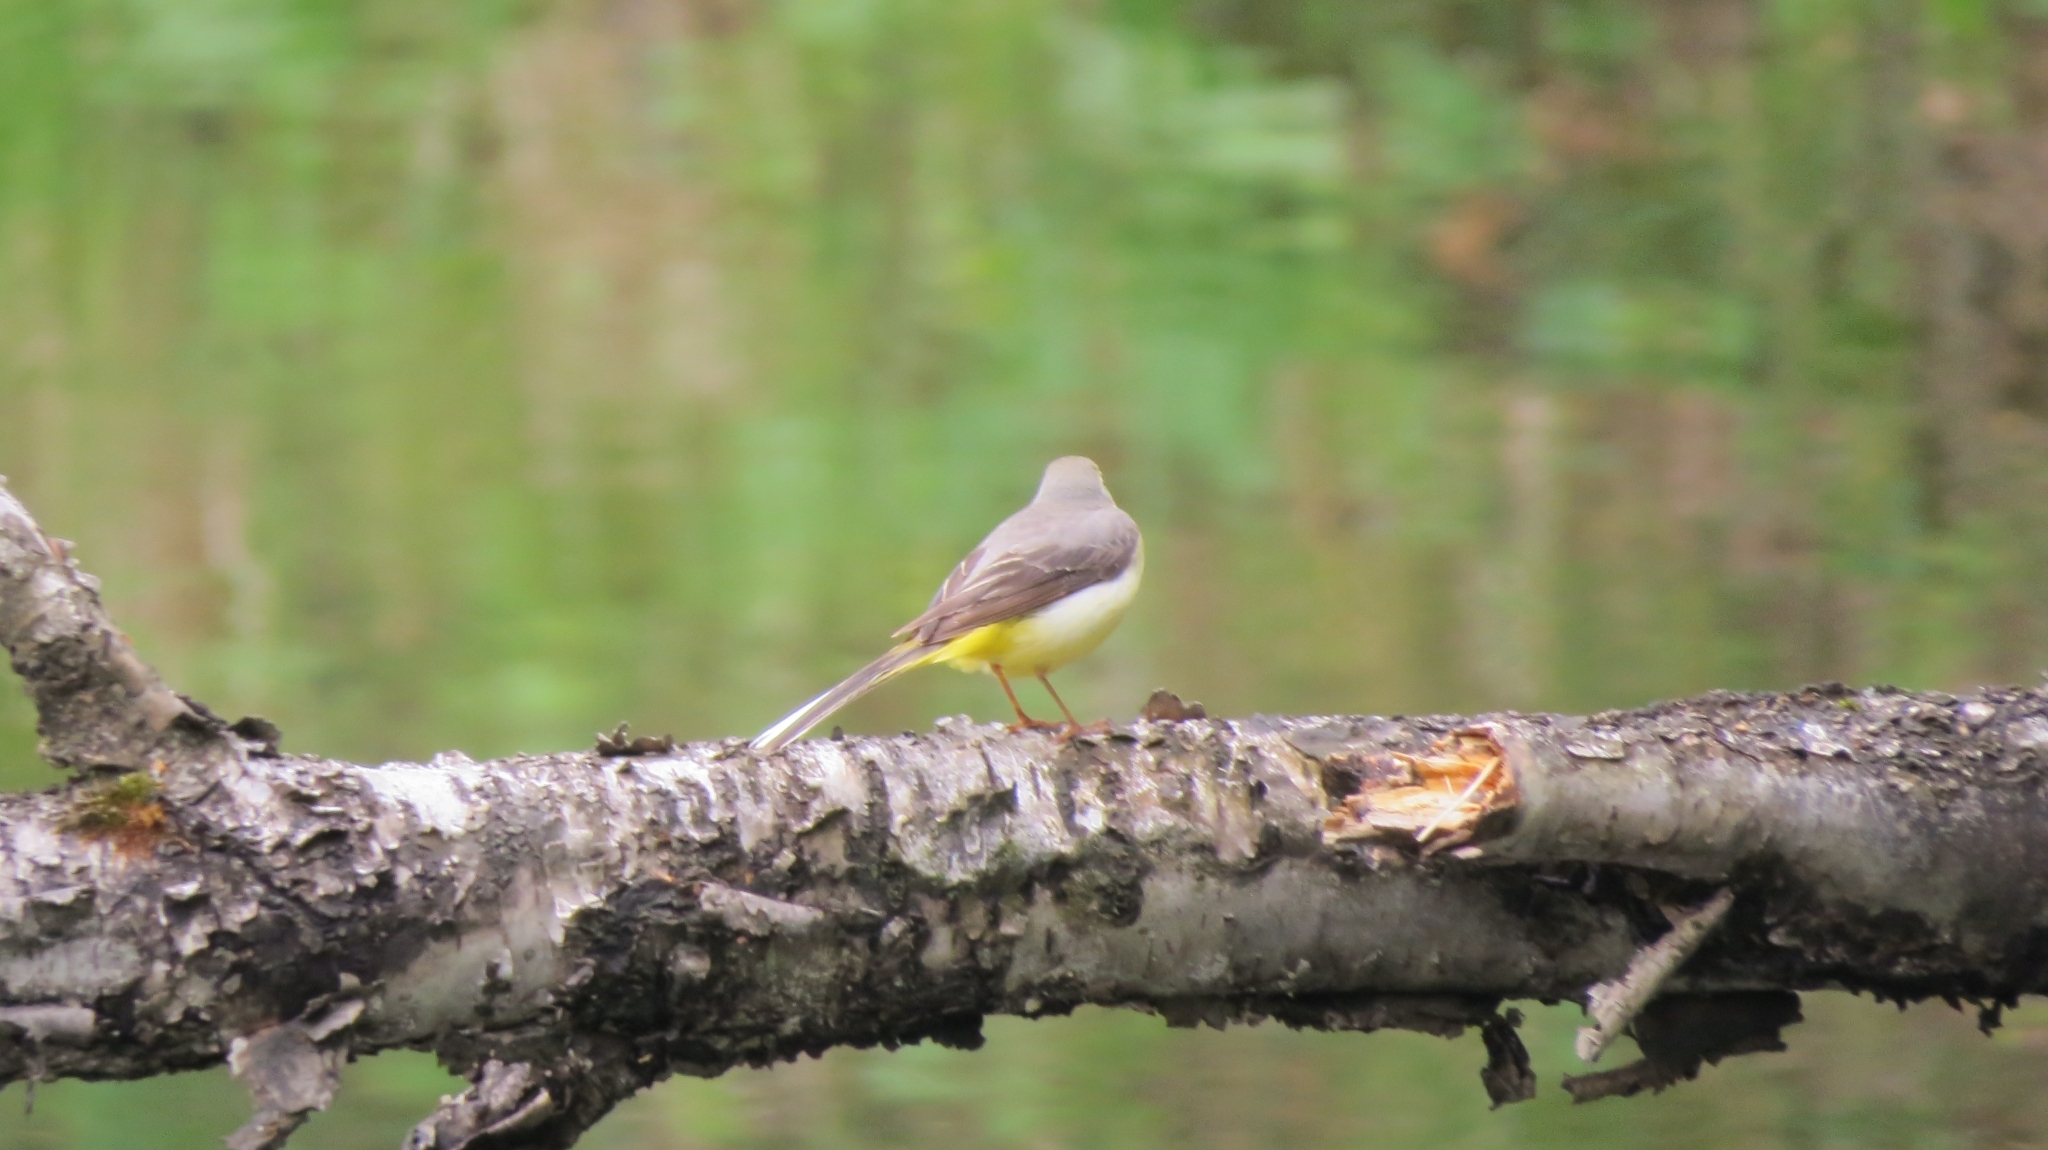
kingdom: Animalia
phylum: Chordata
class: Aves
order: Passeriformes
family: Motacillidae
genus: Motacilla
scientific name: Motacilla cinerea
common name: Grey wagtail
